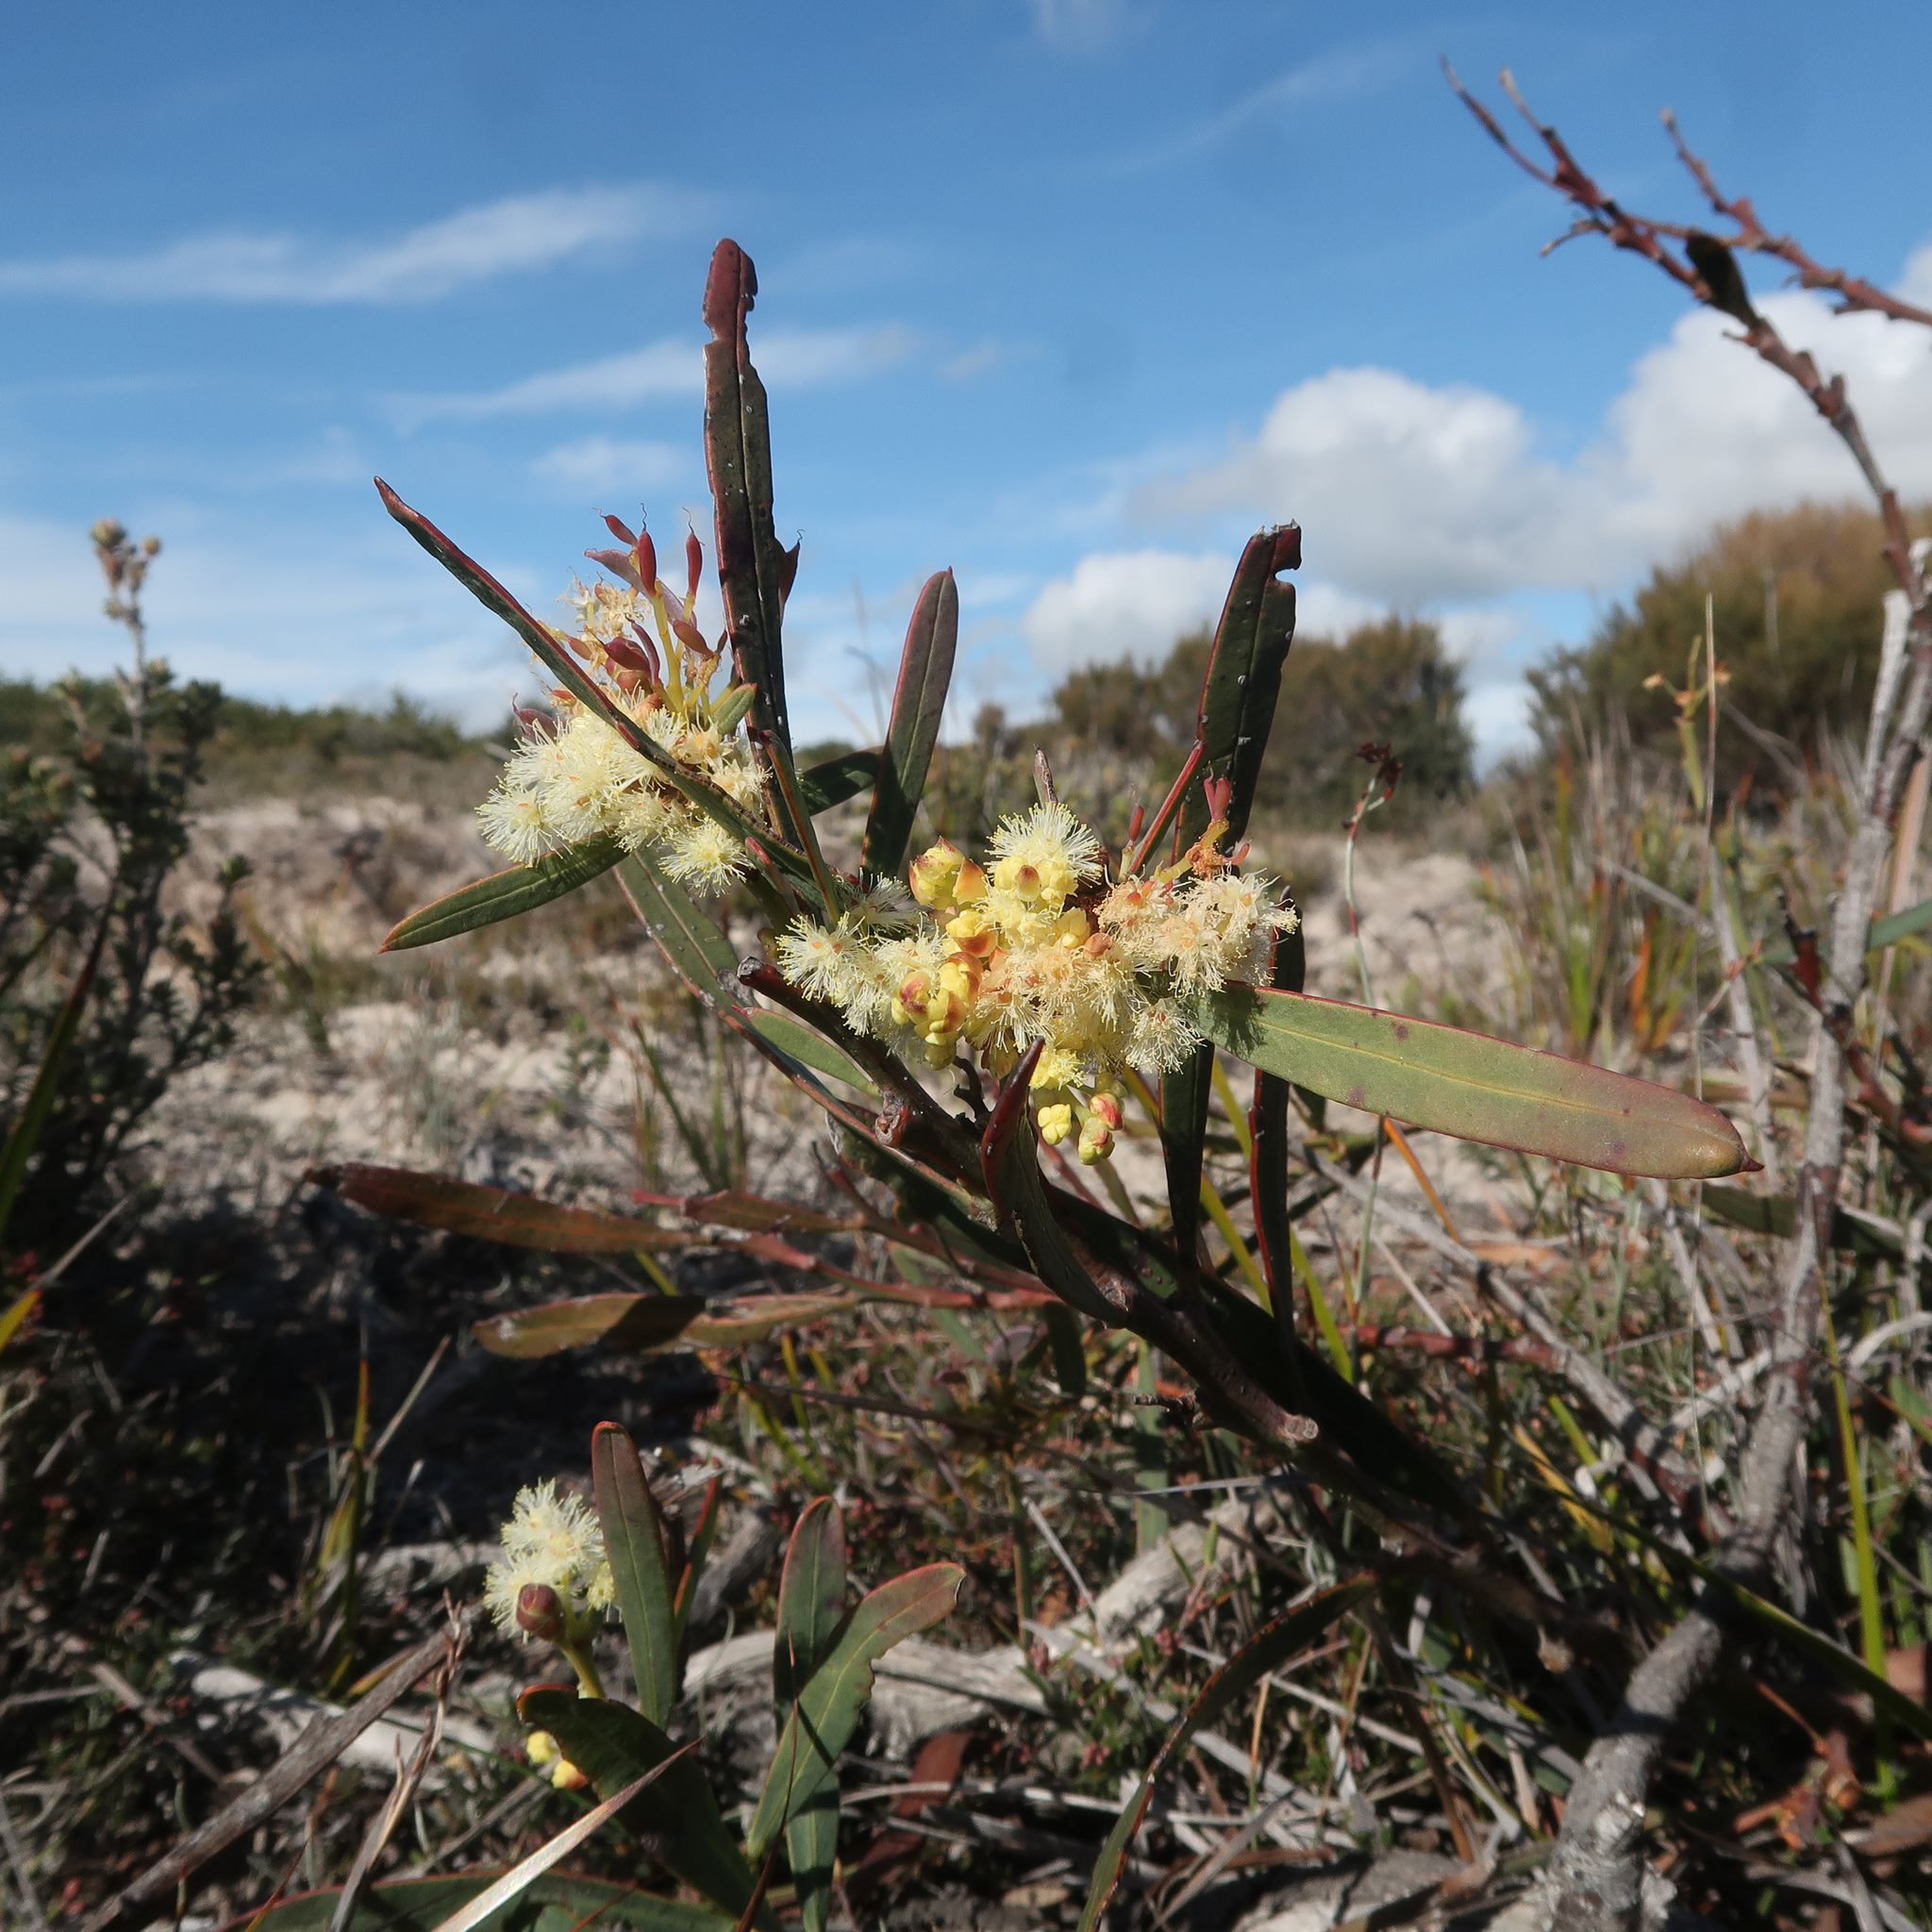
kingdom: Plantae
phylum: Tracheophyta
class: Magnoliopsida
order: Fabales
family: Fabaceae
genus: Acacia
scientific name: Acacia suaveolens
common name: Sweet acacia
